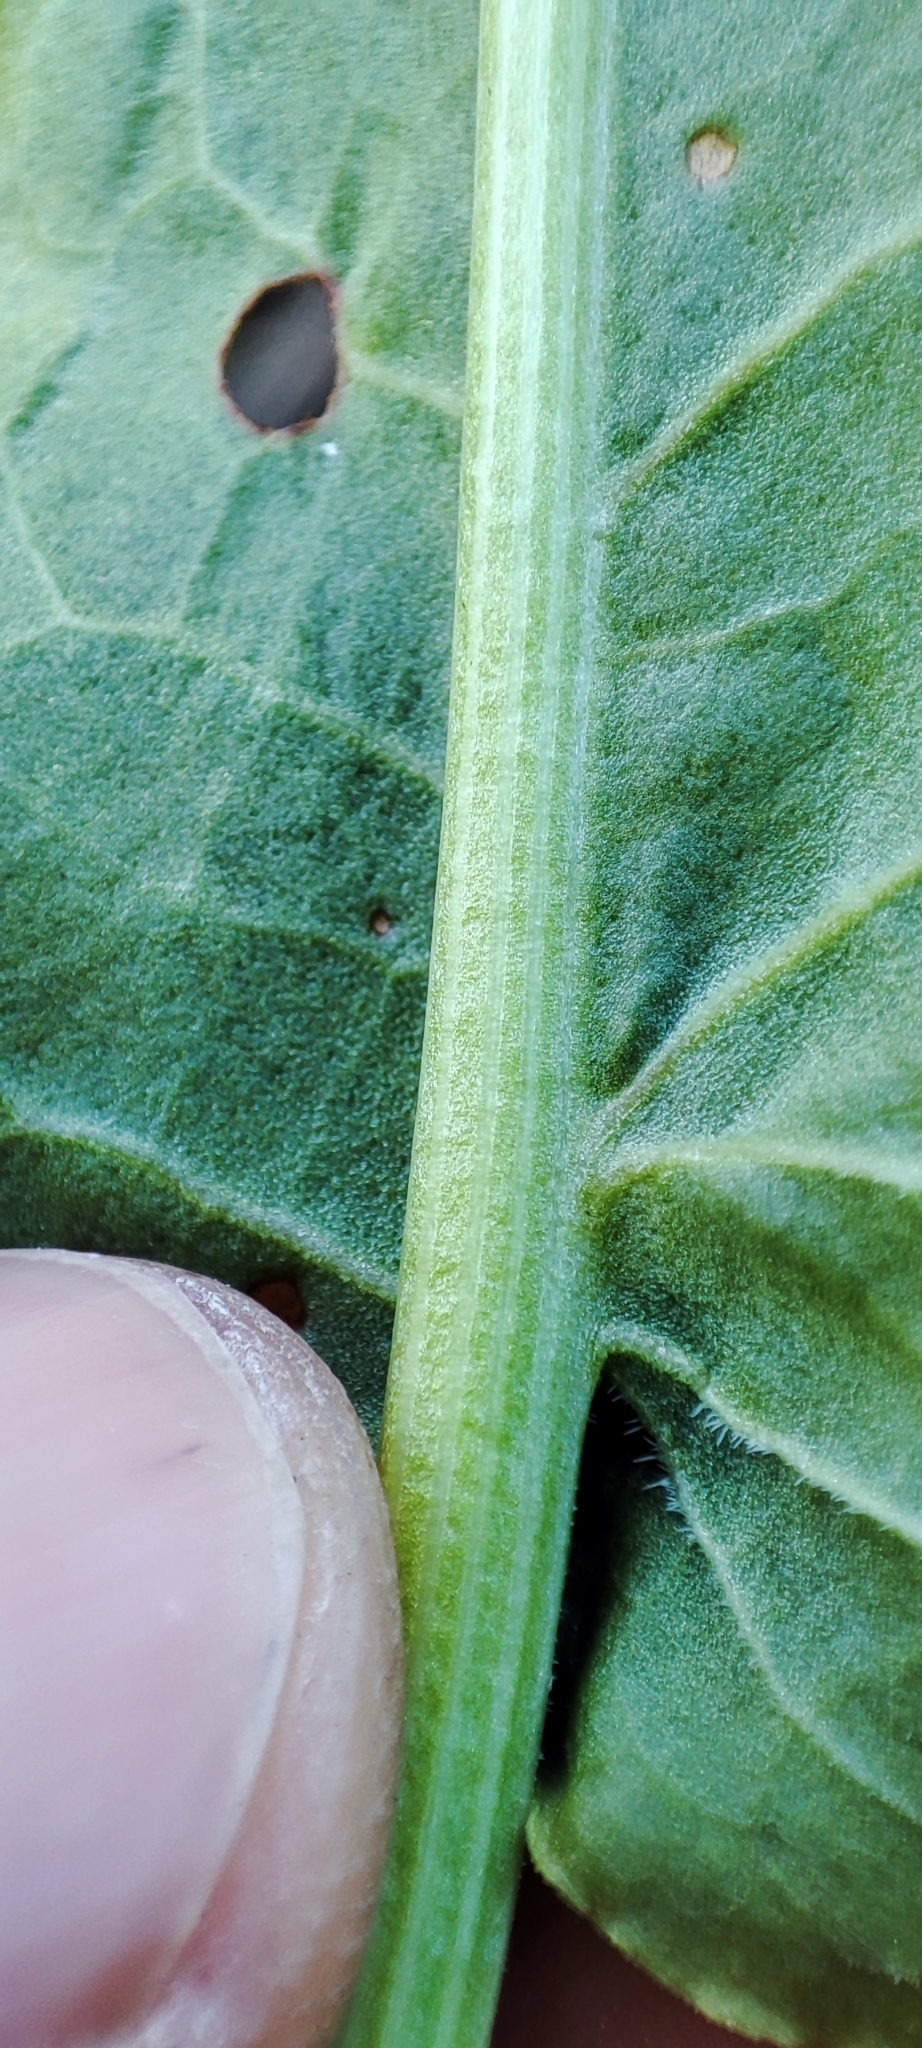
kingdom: Plantae
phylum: Tracheophyta
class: Magnoliopsida
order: Caryophyllales
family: Polygonaceae
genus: Rumex
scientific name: Rumex aquaticus
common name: Scottish dock
